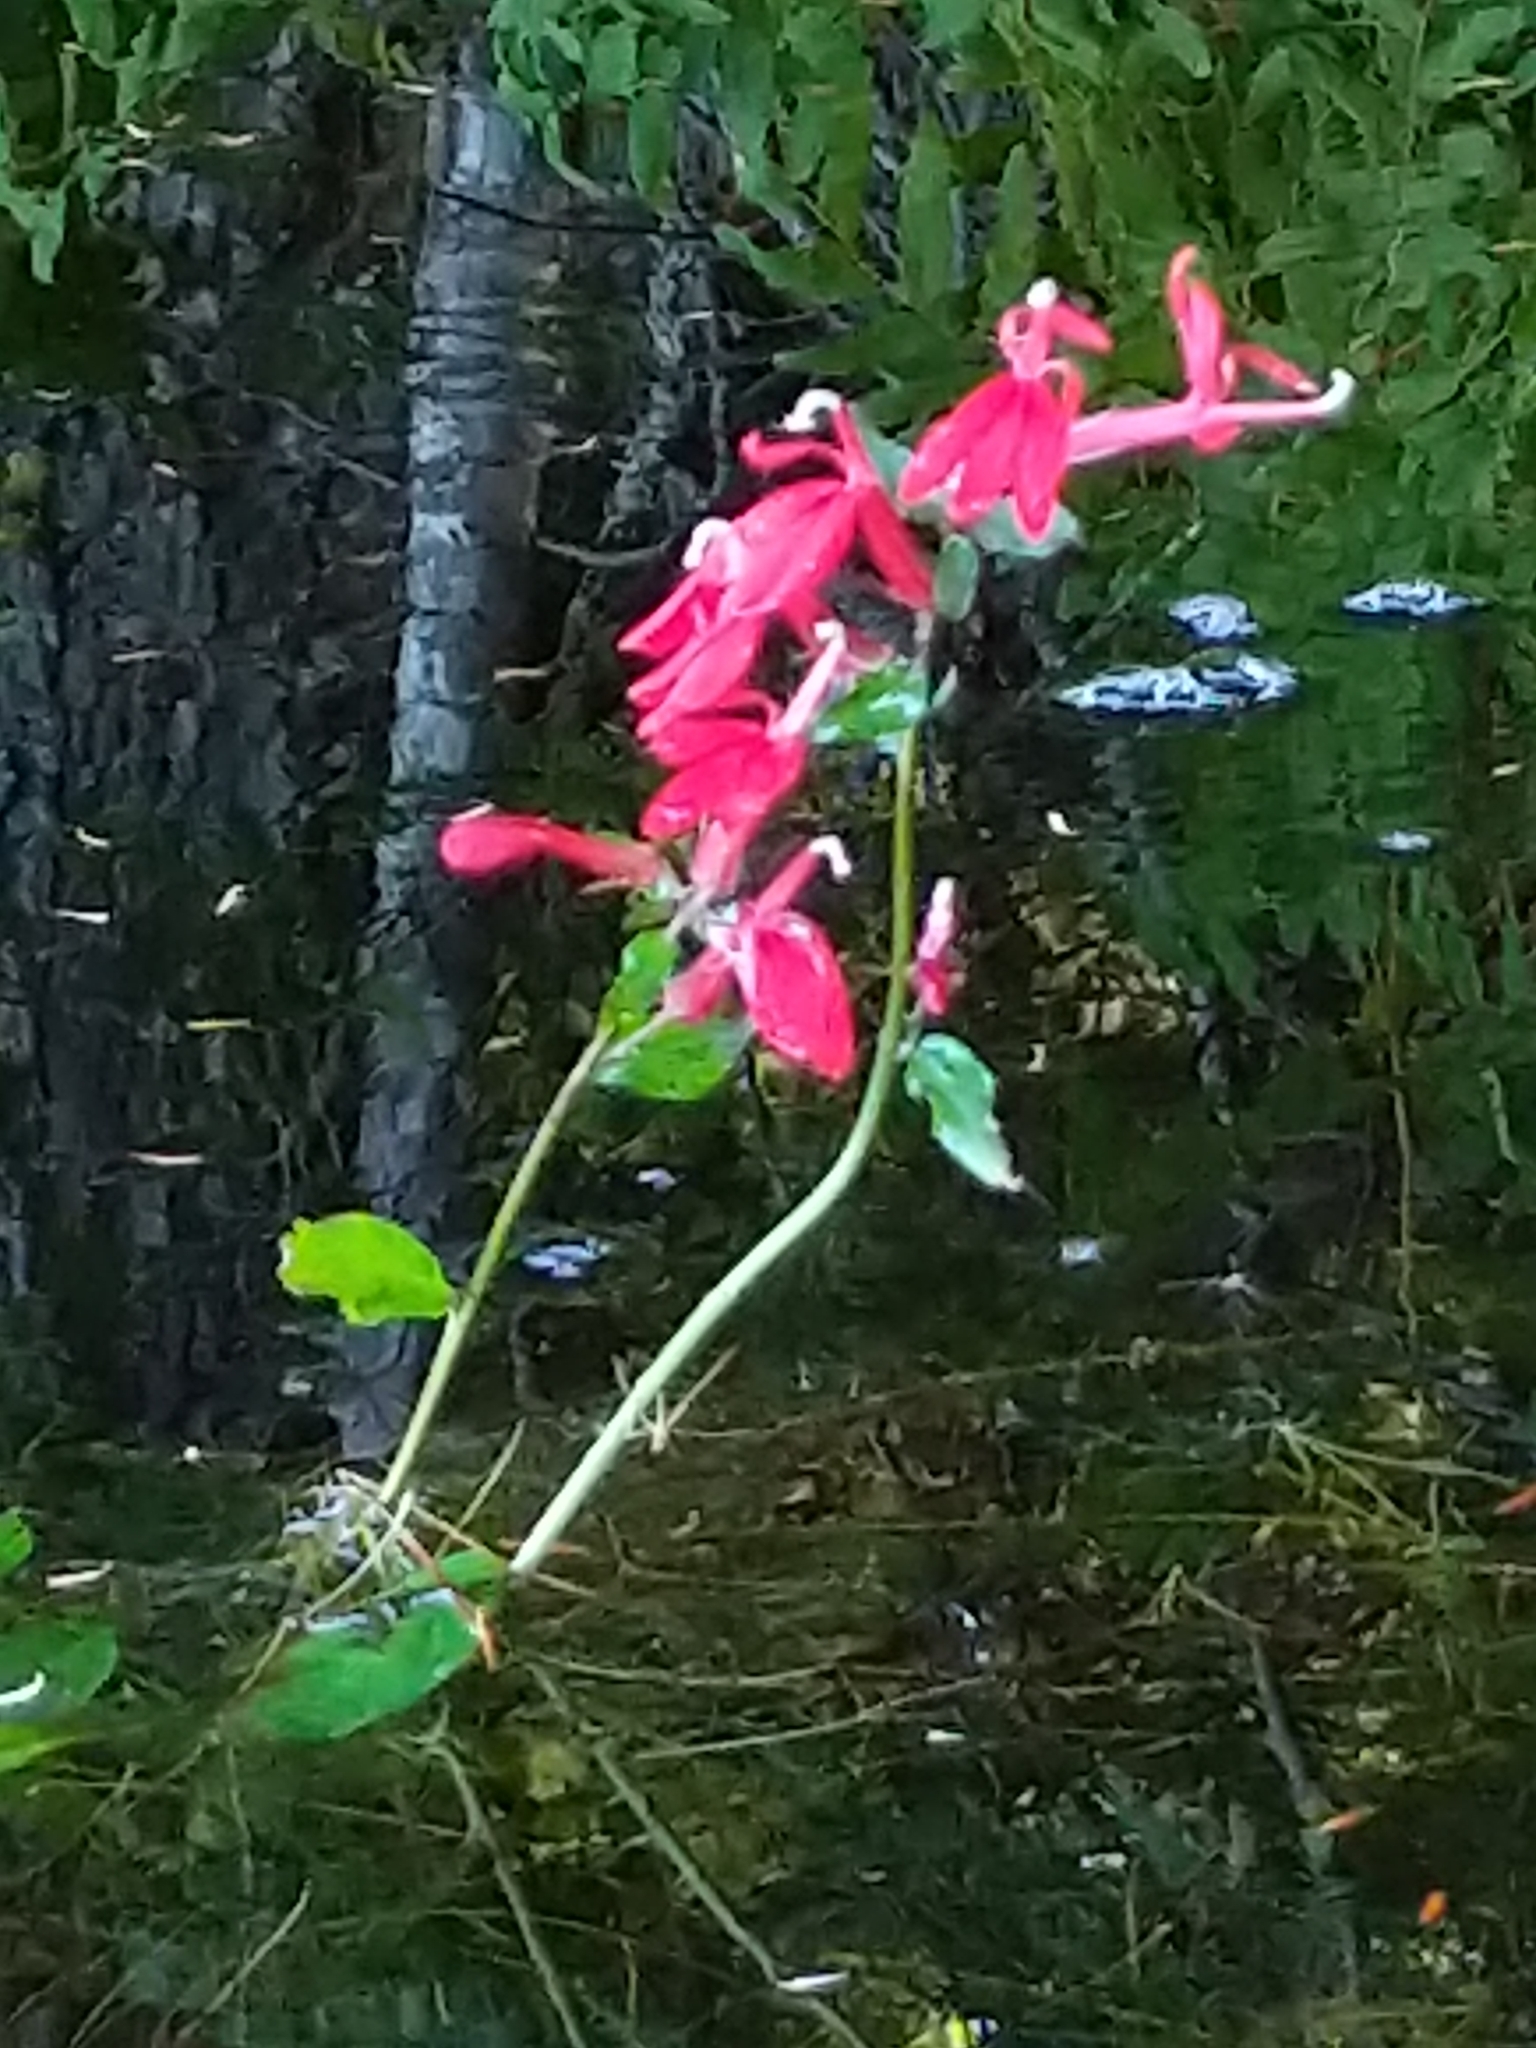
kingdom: Plantae
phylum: Tracheophyta
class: Magnoliopsida
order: Asterales
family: Campanulaceae
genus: Lobelia
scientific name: Lobelia cardinalis
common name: Cardinal flower
